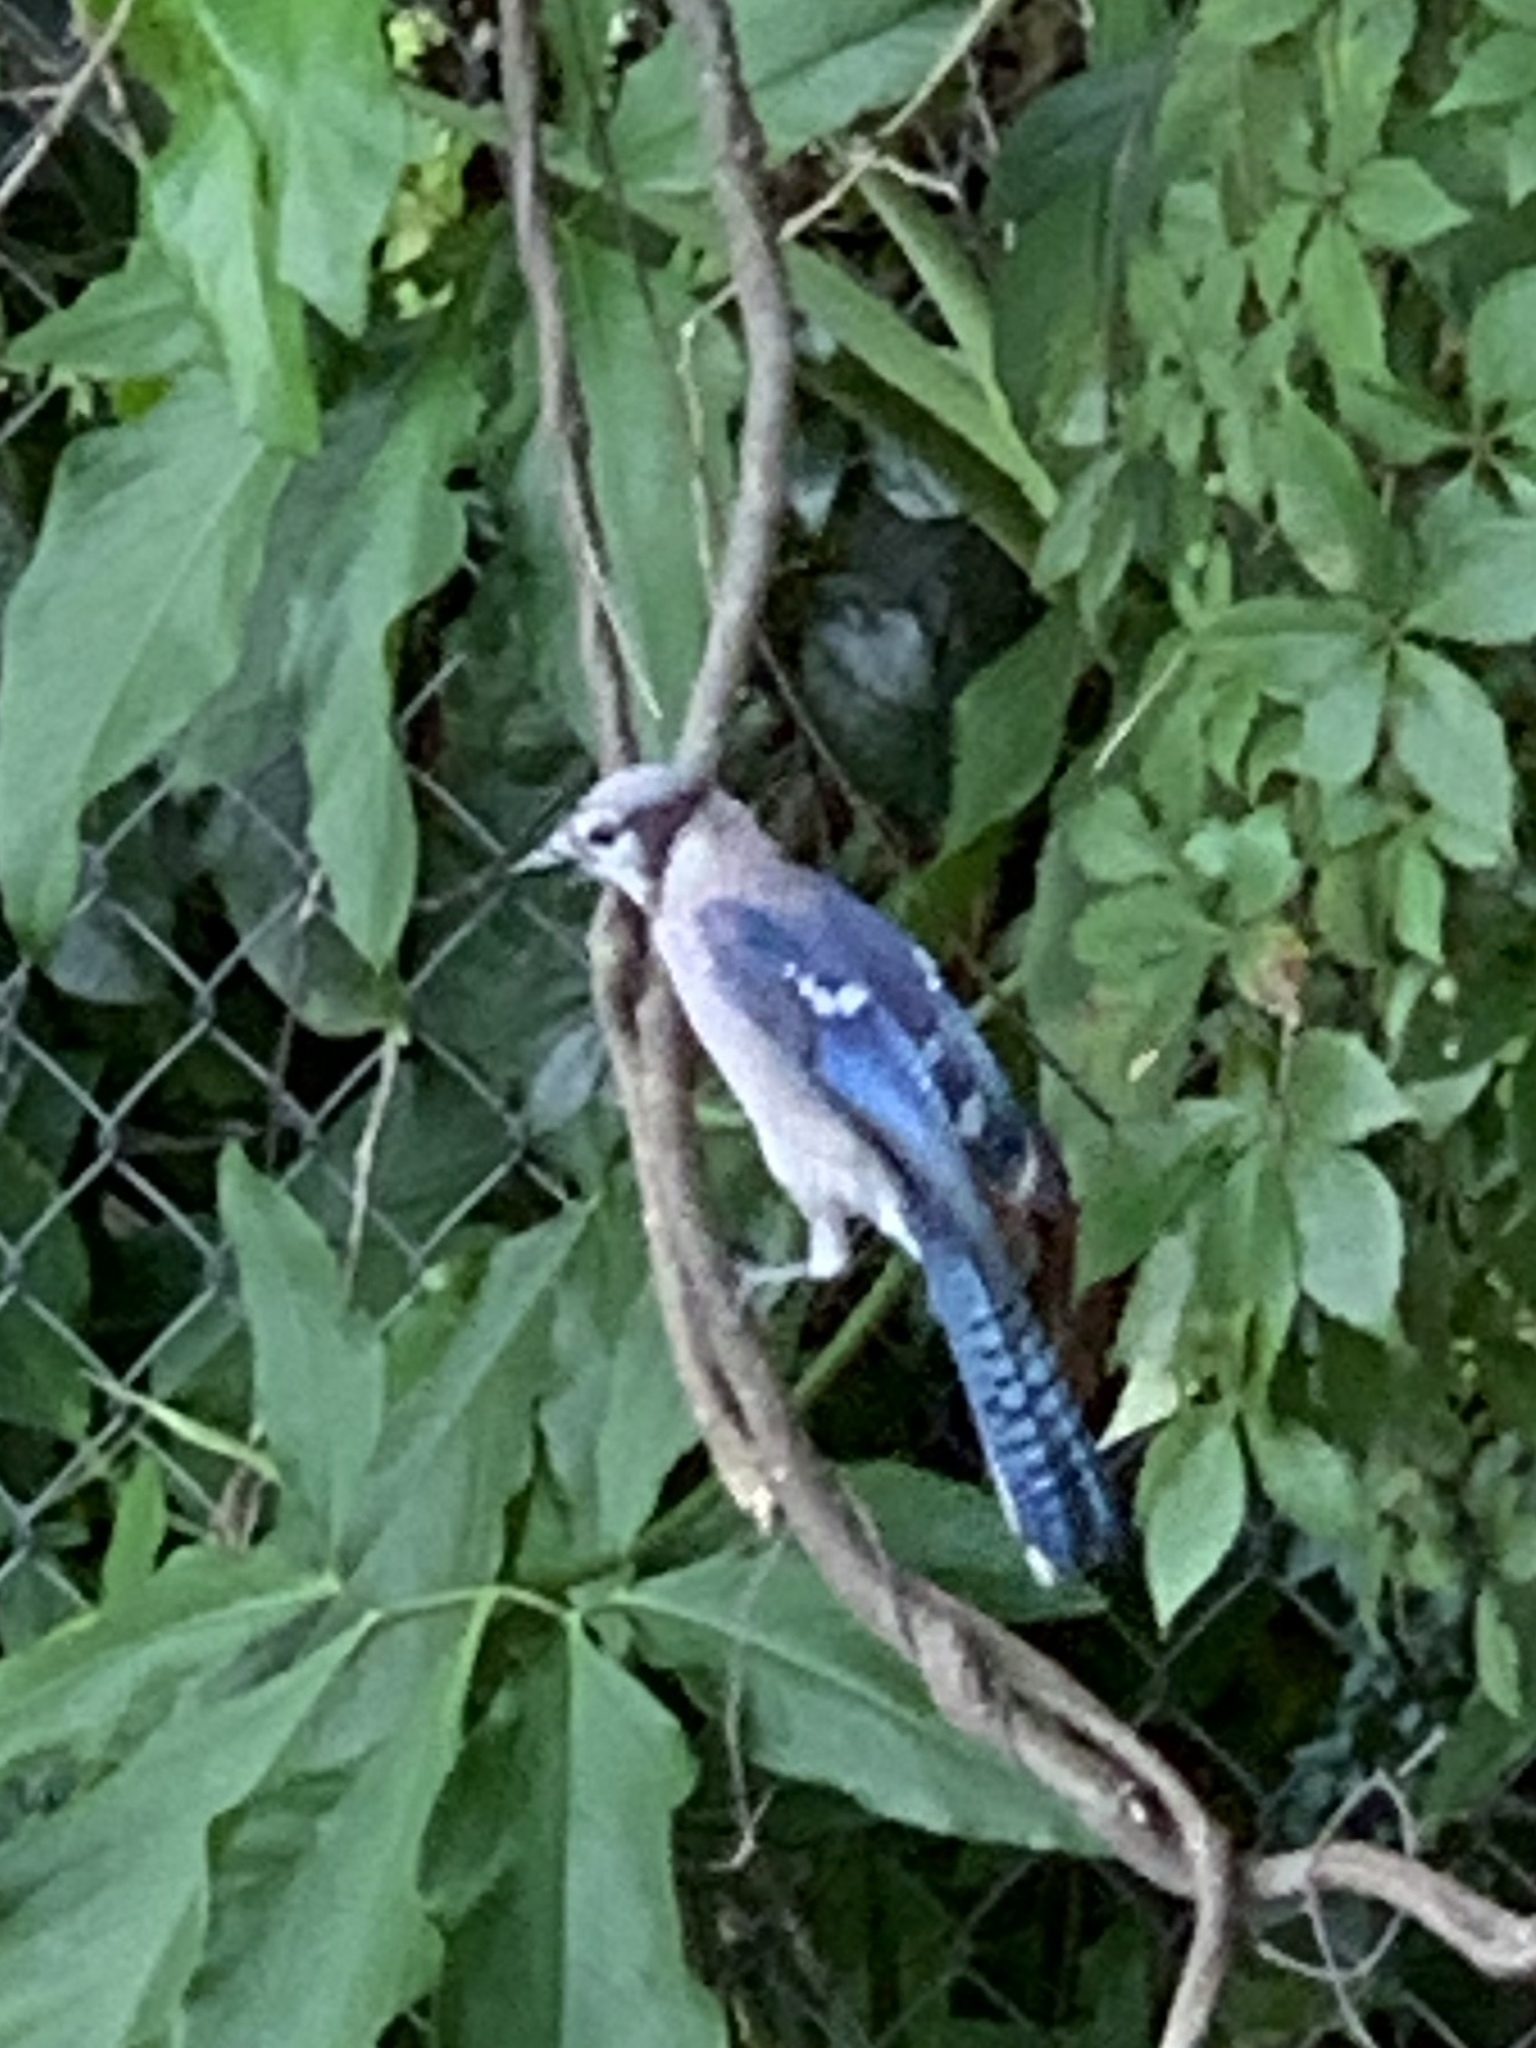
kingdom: Animalia
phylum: Chordata
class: Aves
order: Passeriformes
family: Corvidae
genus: Cyanocitta
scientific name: Cyanocitta cristata
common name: Blue jay
